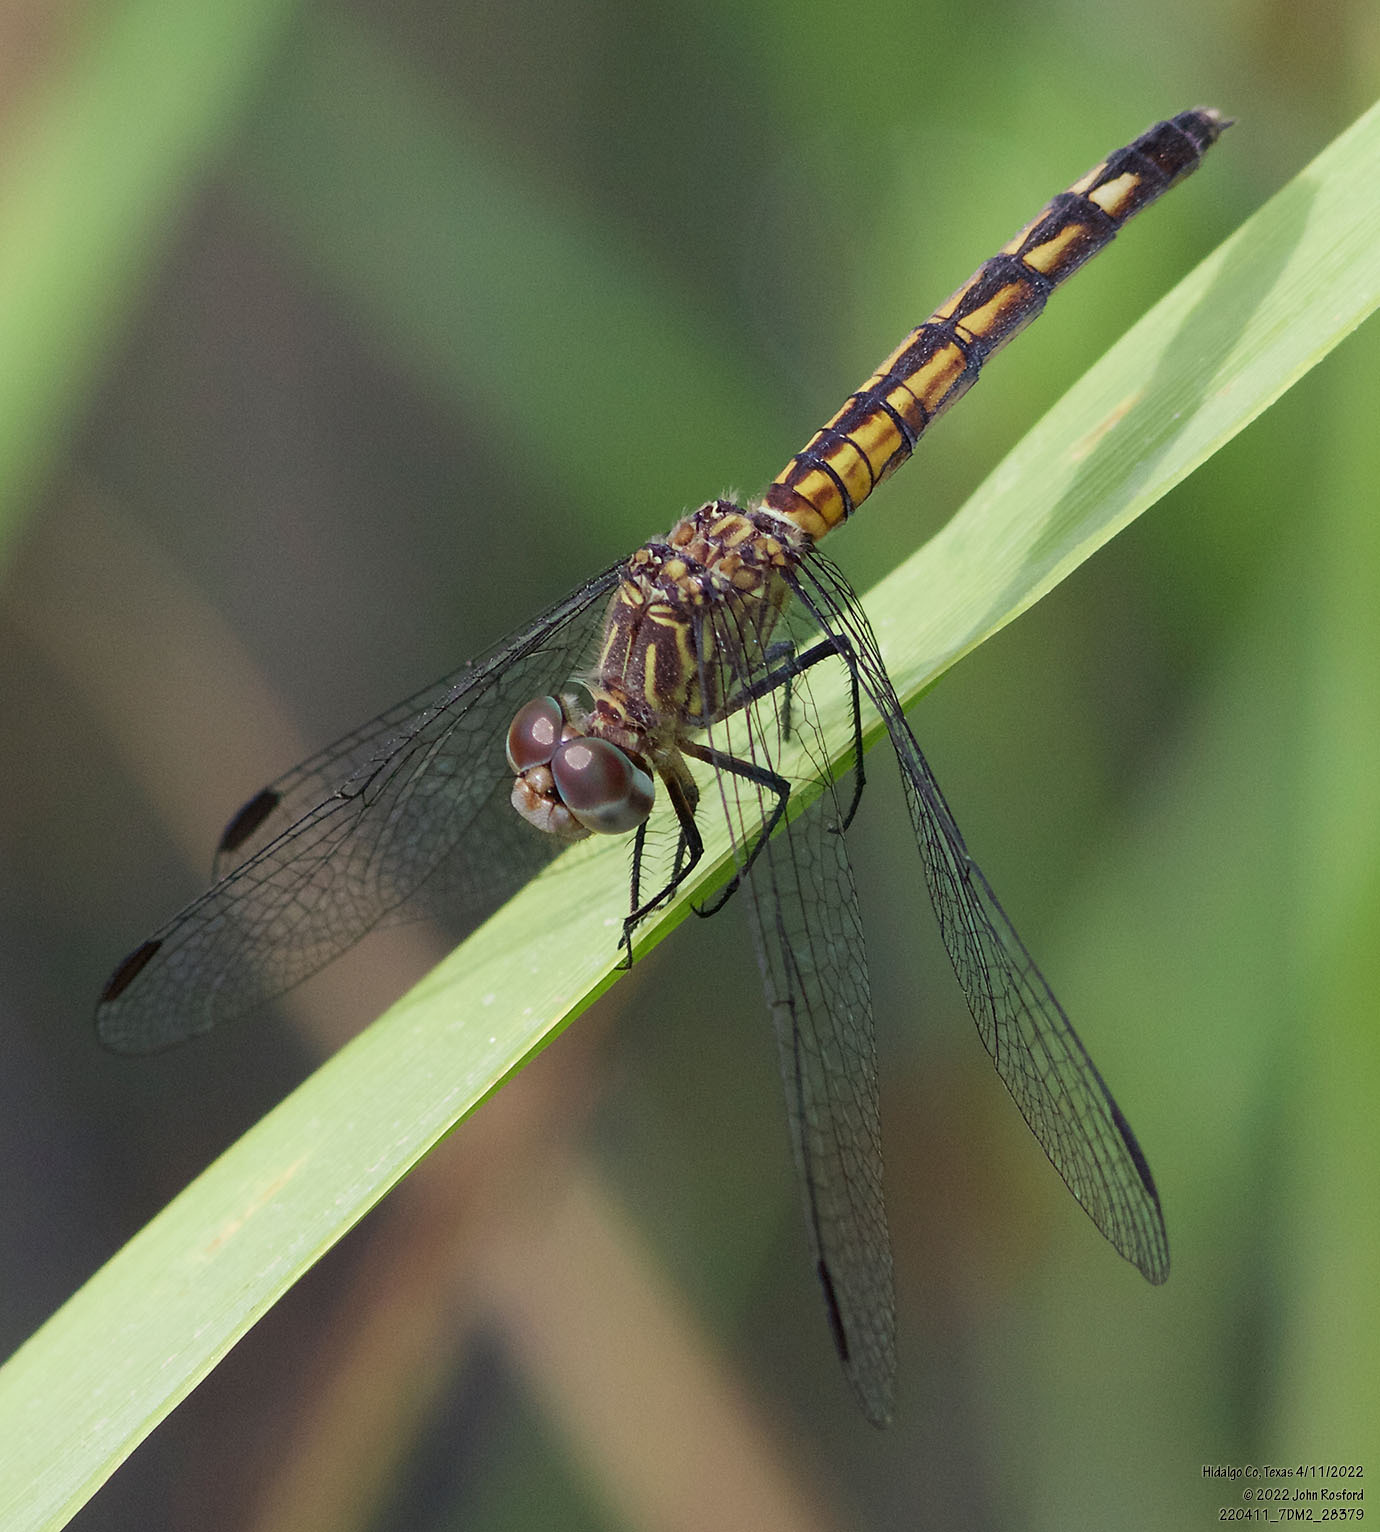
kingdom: Animalia
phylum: Arthropoda
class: Insecta
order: Odonata
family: Libellulidae
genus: Micrathyria
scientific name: Micrathyria aequalis
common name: Spot-tailed dasher
